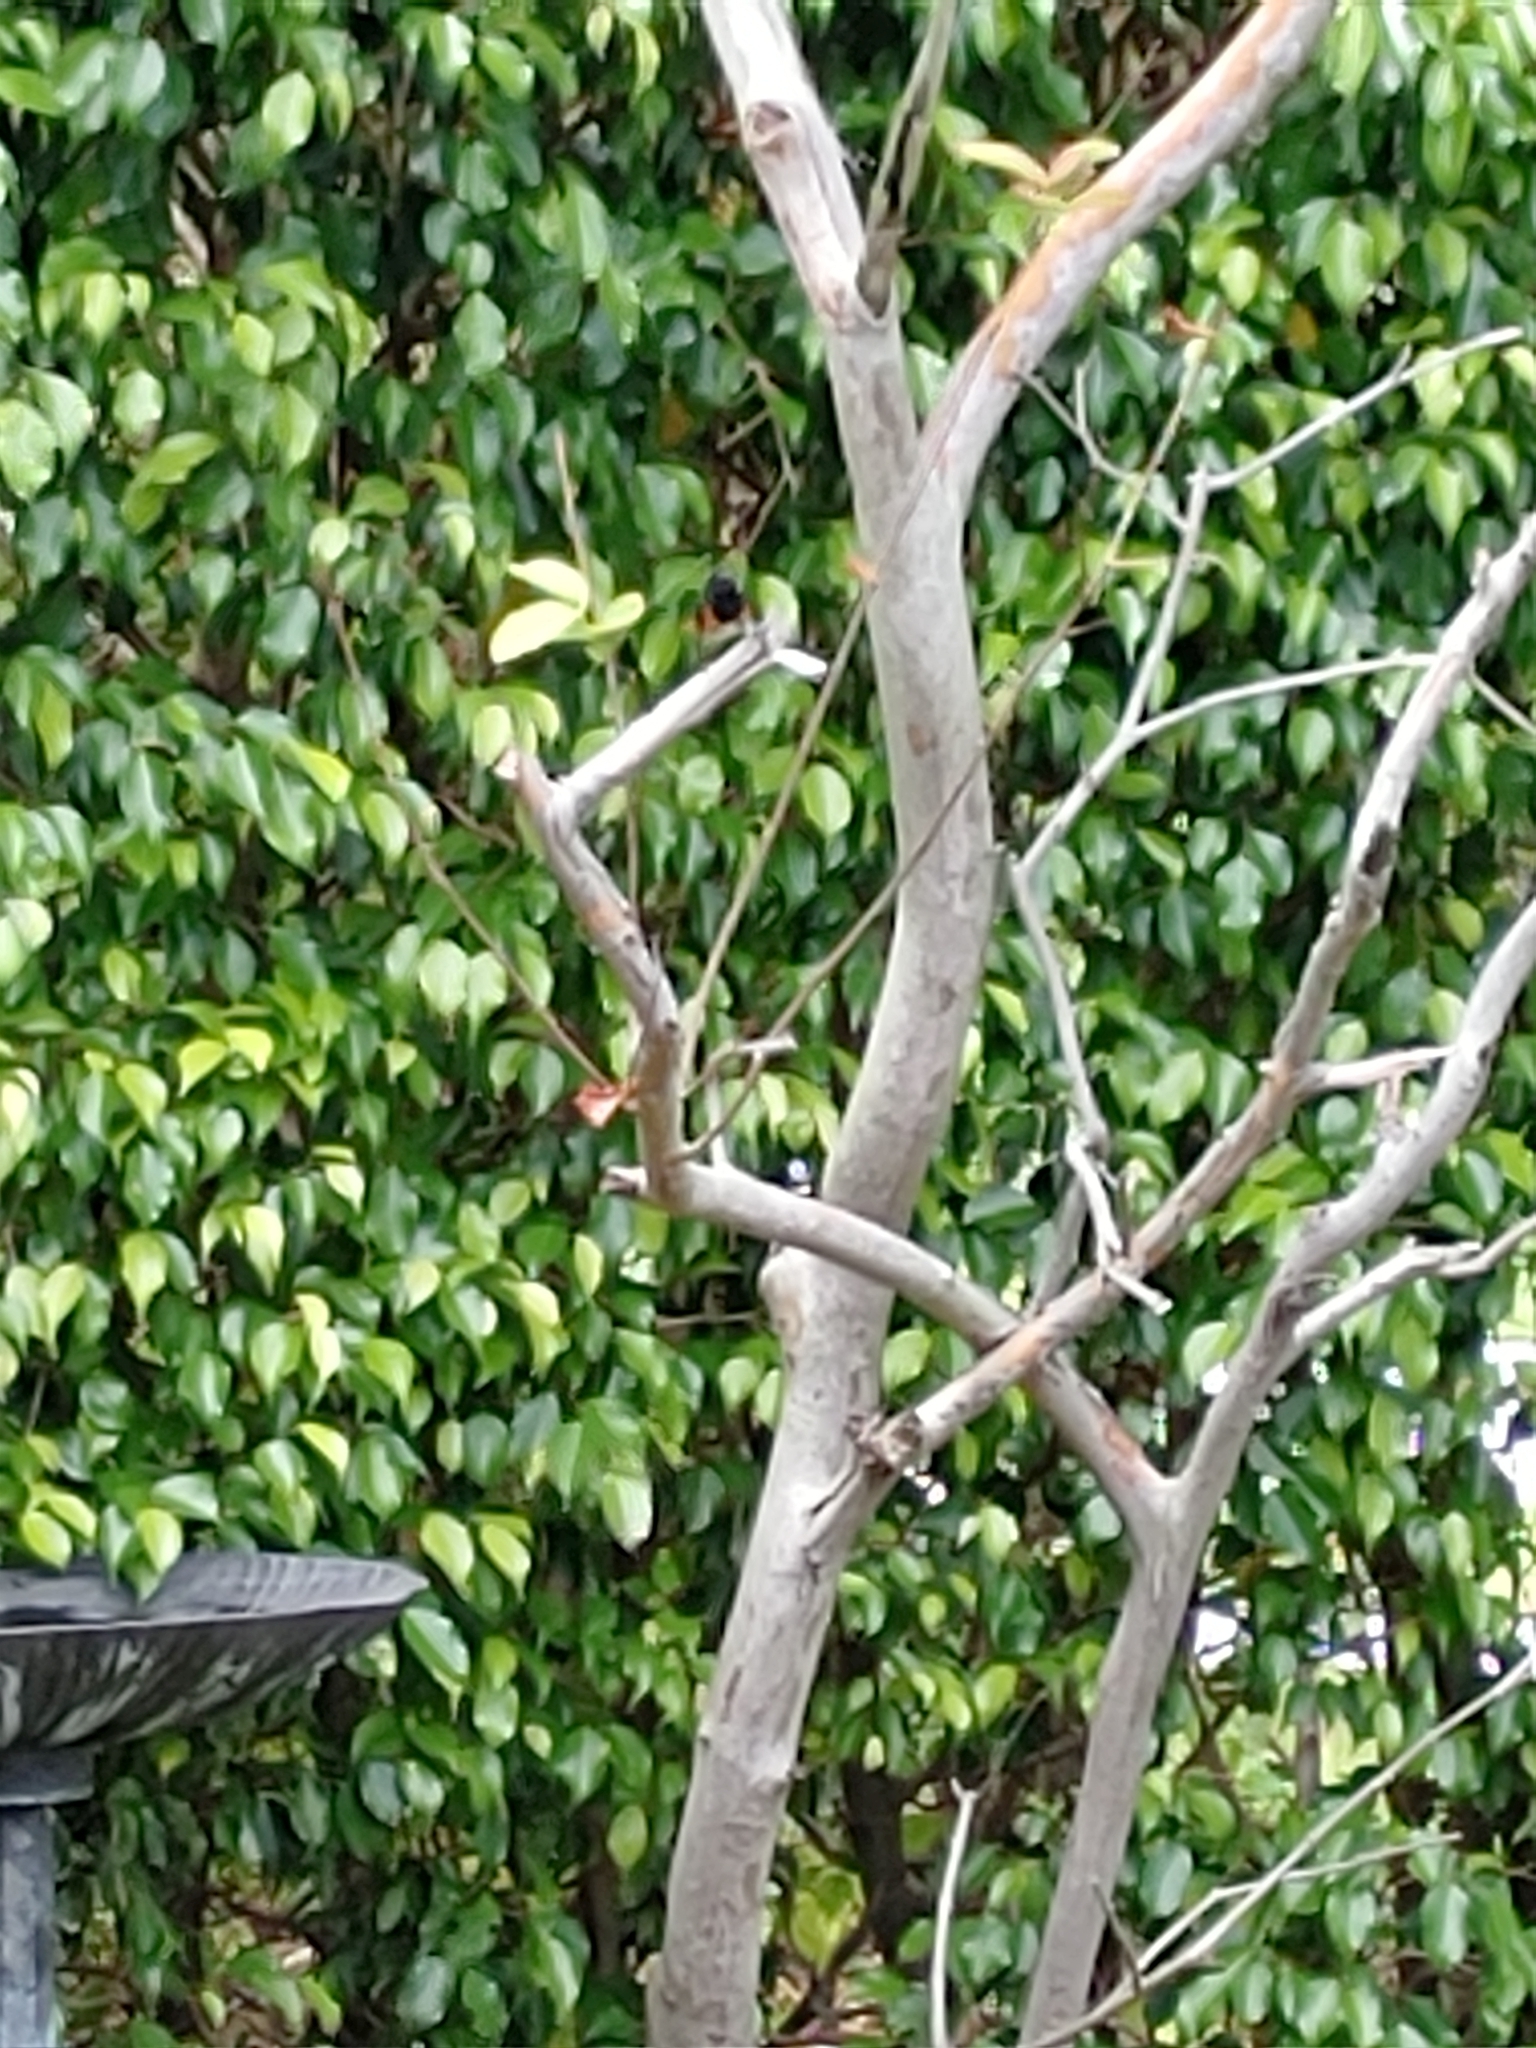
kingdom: Animalia
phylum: Chordata
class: Aves
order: Passeriformes
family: Parulidae
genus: Setophaga
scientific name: Setophaga ruticilla
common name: American redstart
